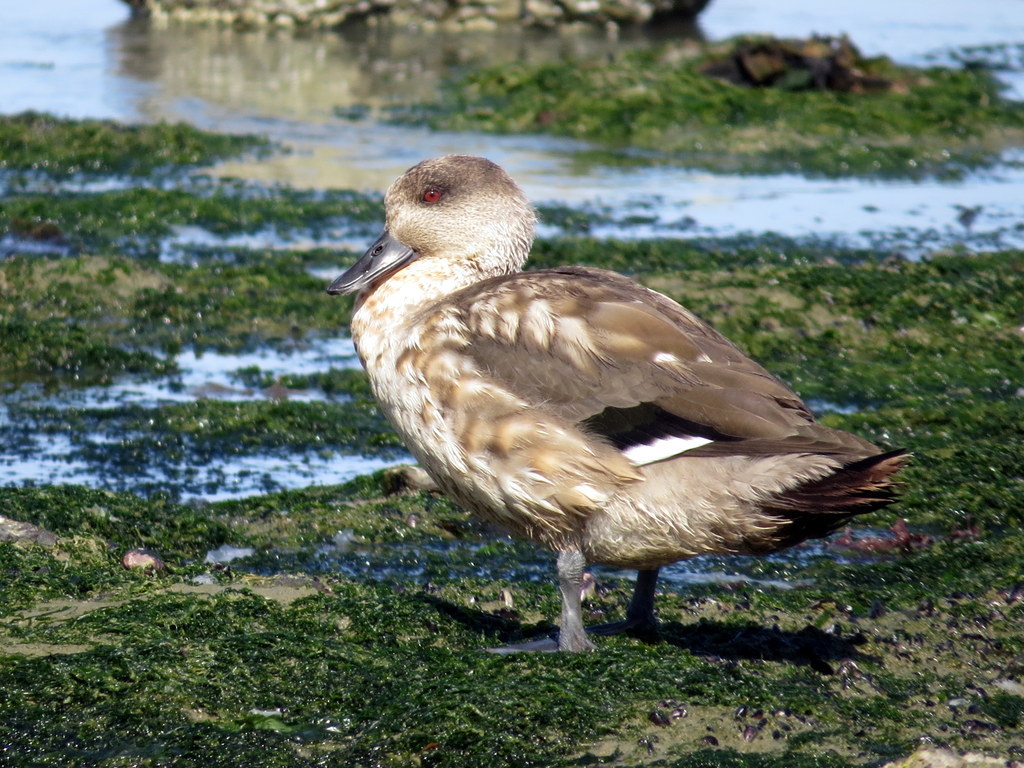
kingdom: Animalia
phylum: Chordata
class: Aves
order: Anseriformes
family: Anatidae
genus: Lophonetta
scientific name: Lophonetta specularioides
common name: Crested duck
